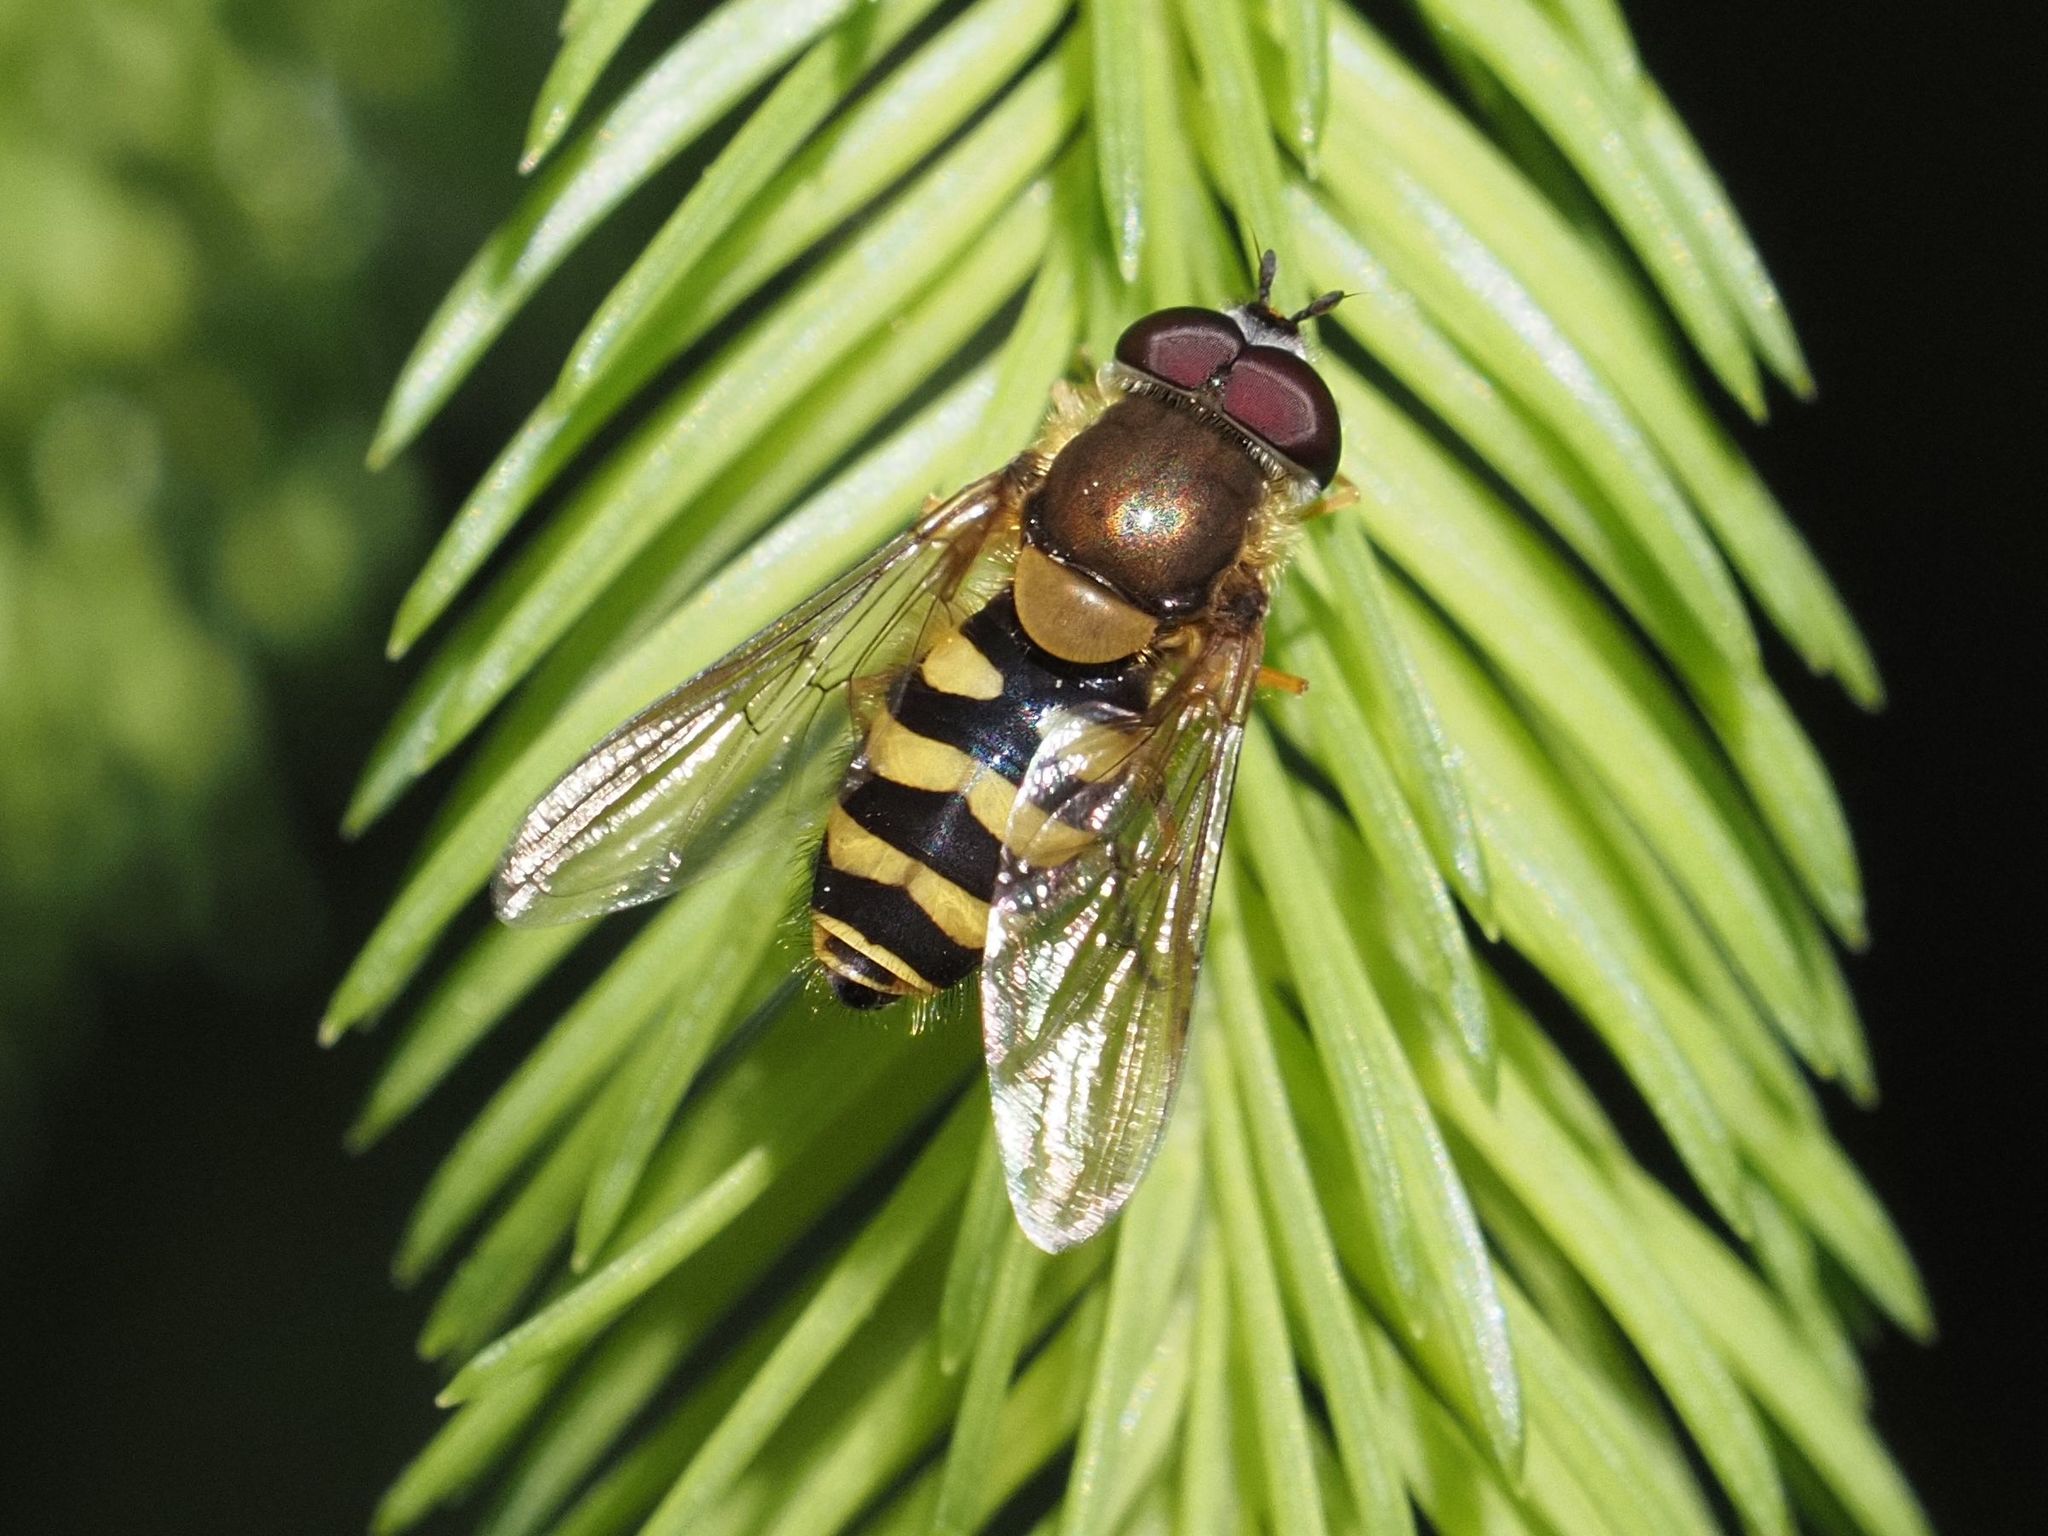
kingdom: Animalia
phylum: Arthropoda
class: Insecta
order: Diptera
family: Syrphidae
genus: Syrphus
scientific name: Syrphus
